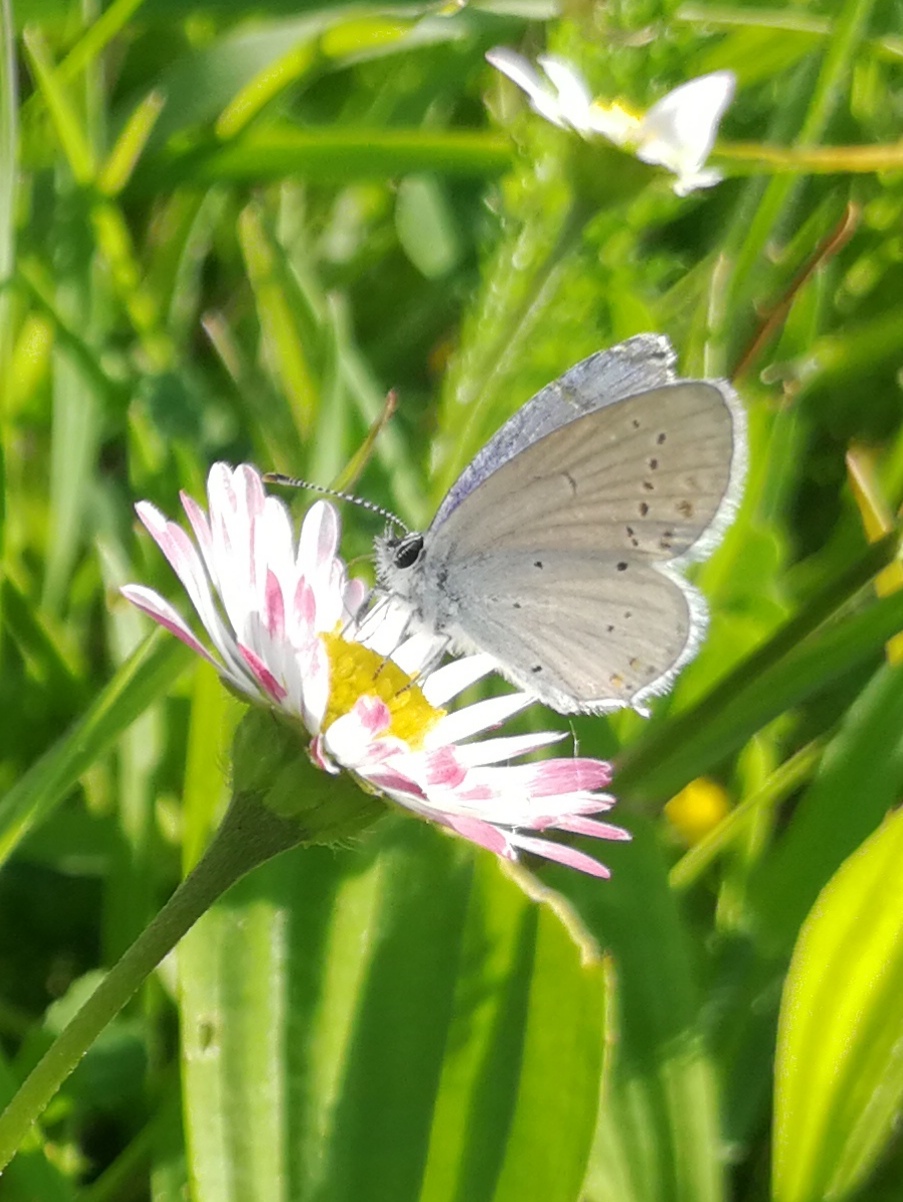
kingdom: Animalia
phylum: Arthropoda
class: Insecta
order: Lepidoptera
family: Lycaenidae
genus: Elkalyce
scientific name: Elkalyce argiades
